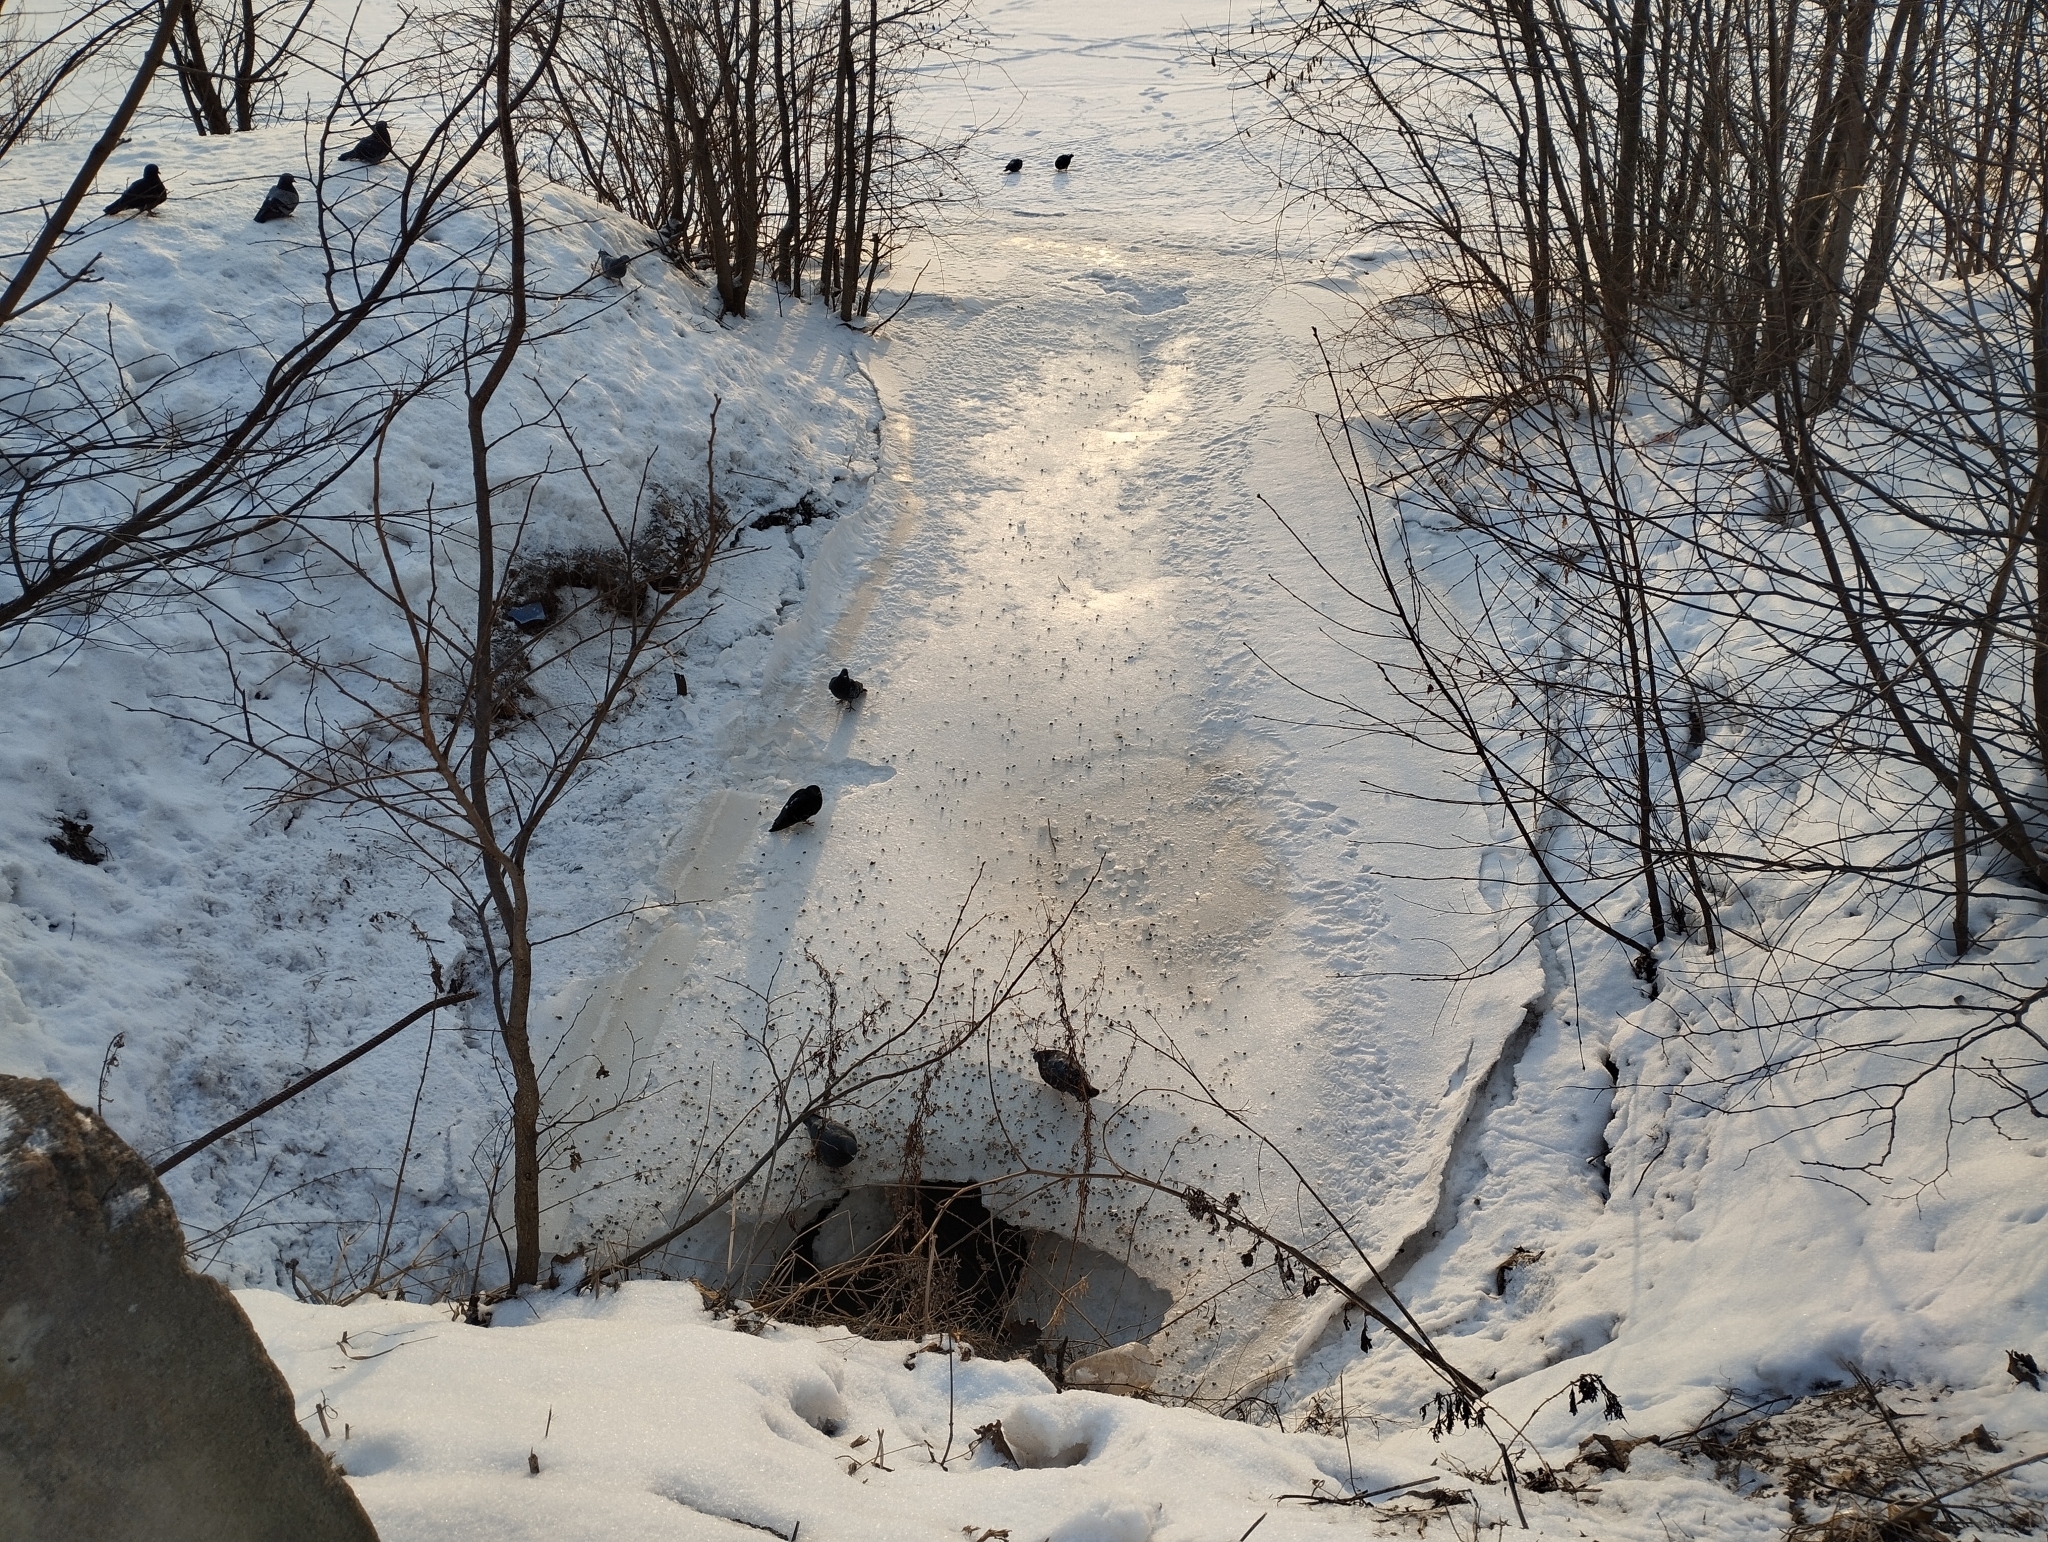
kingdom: Animalia
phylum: Chordata
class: Aves
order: Columbiformes
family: Columbidae
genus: Columba
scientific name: Columba livia
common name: Rock pigeon
